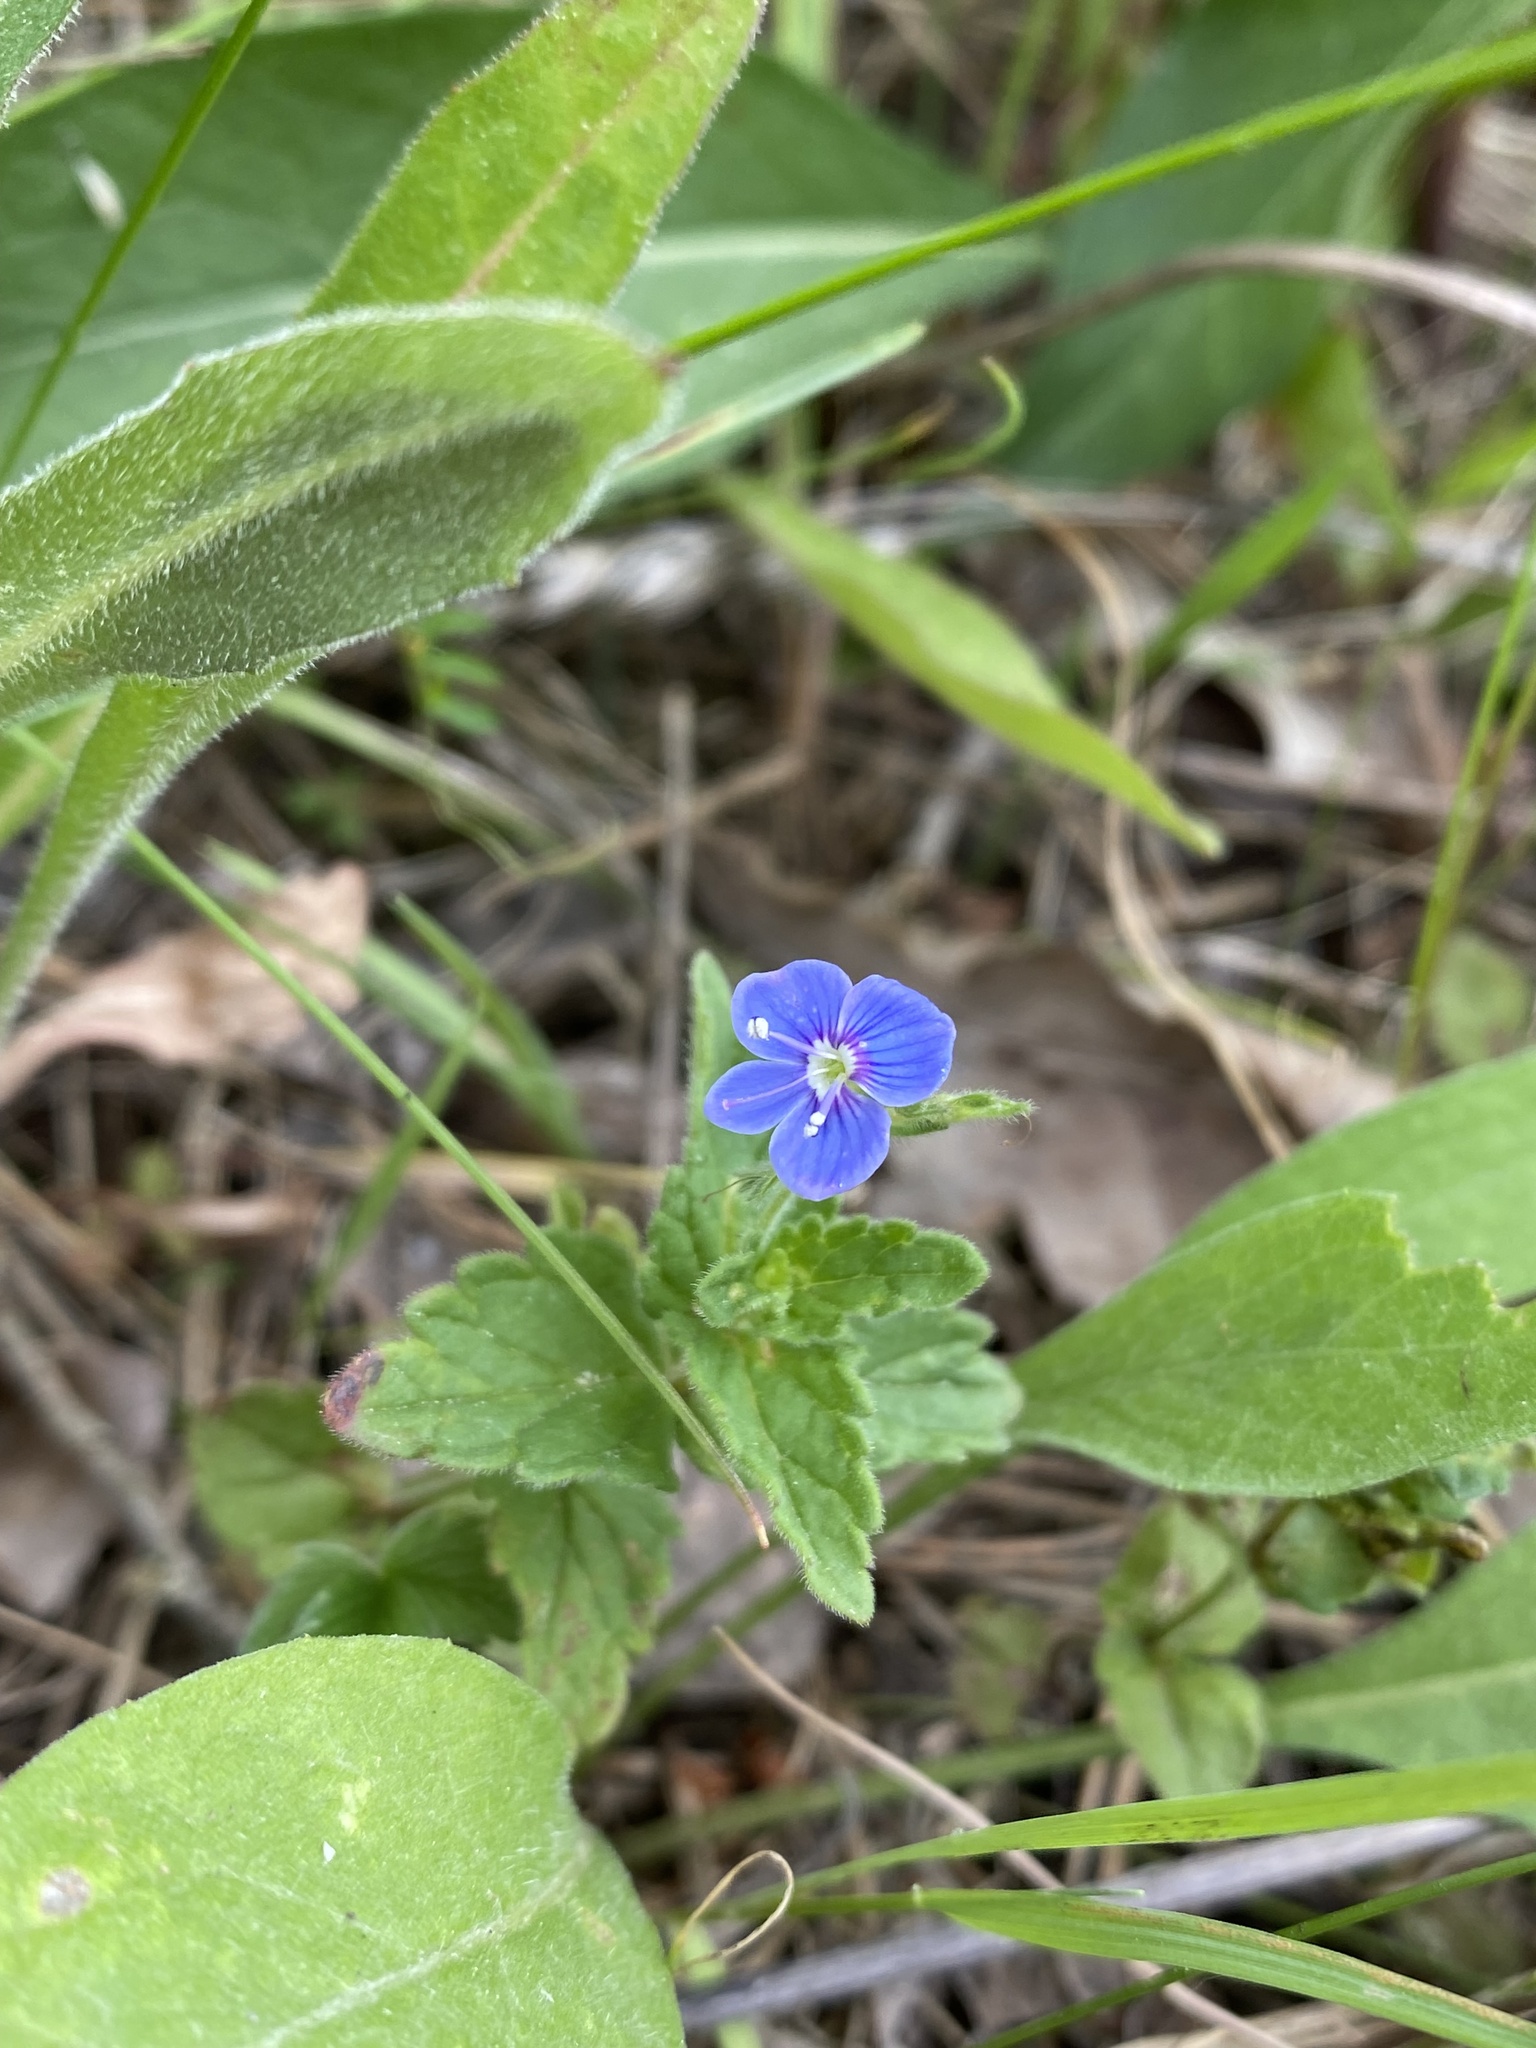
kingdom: Plantae
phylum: Tracheophyta
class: Magnoliopsida
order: Lamiales
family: Plantaginaceae
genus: Veronica
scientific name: Veronica chamaedrys
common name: Germander speedwell
